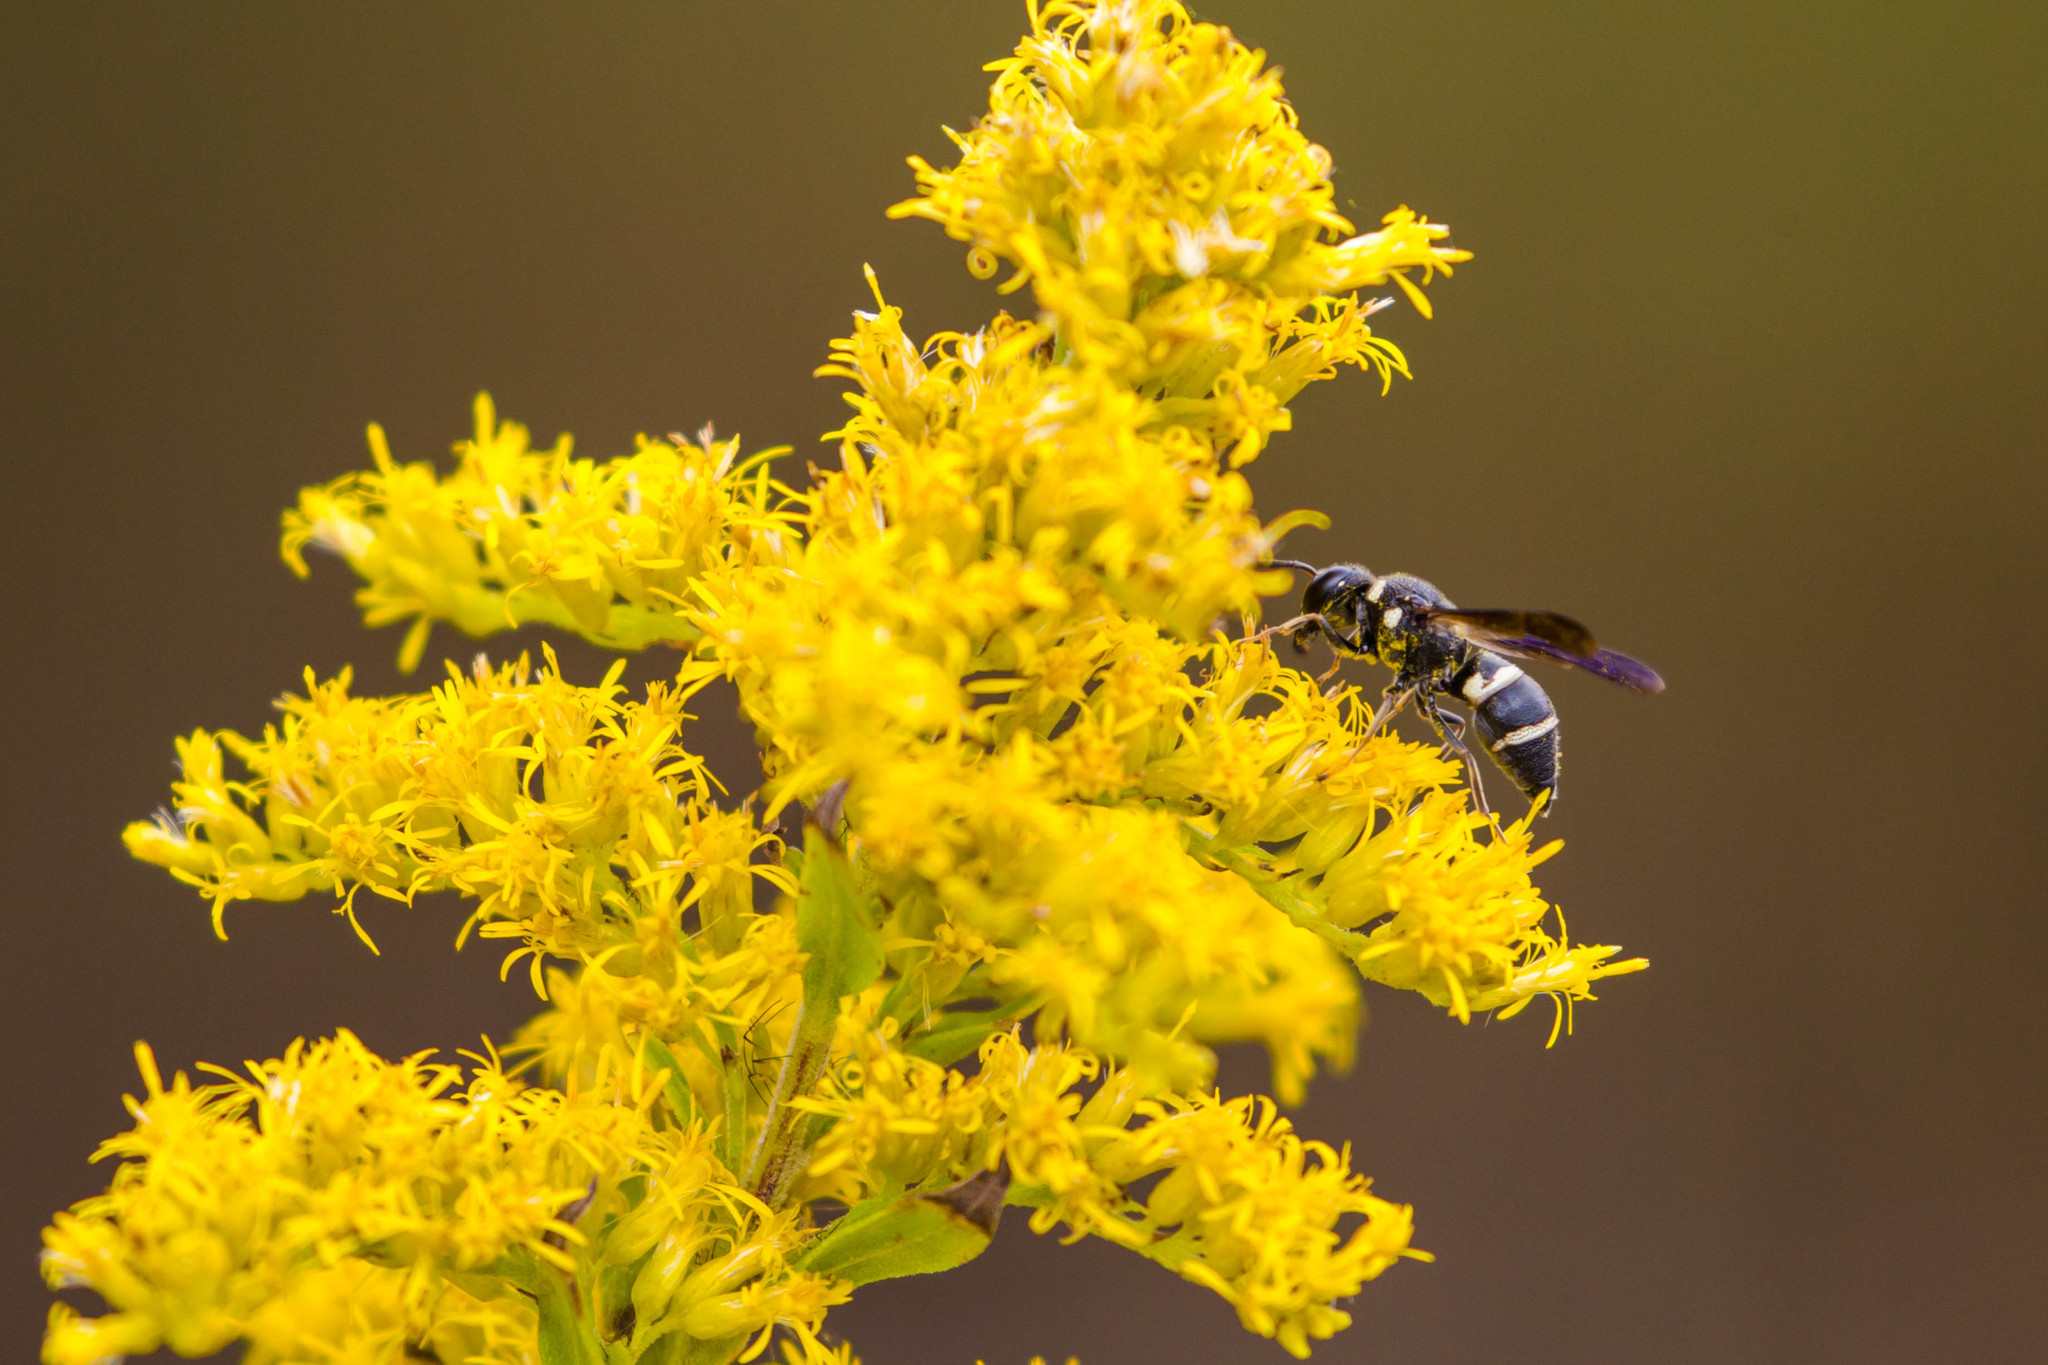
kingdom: Animalia
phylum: Arthropoda
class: Insecta
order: Hymenoptera
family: Eumenidae
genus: Euodynerus
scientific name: Euodynerus megaera
